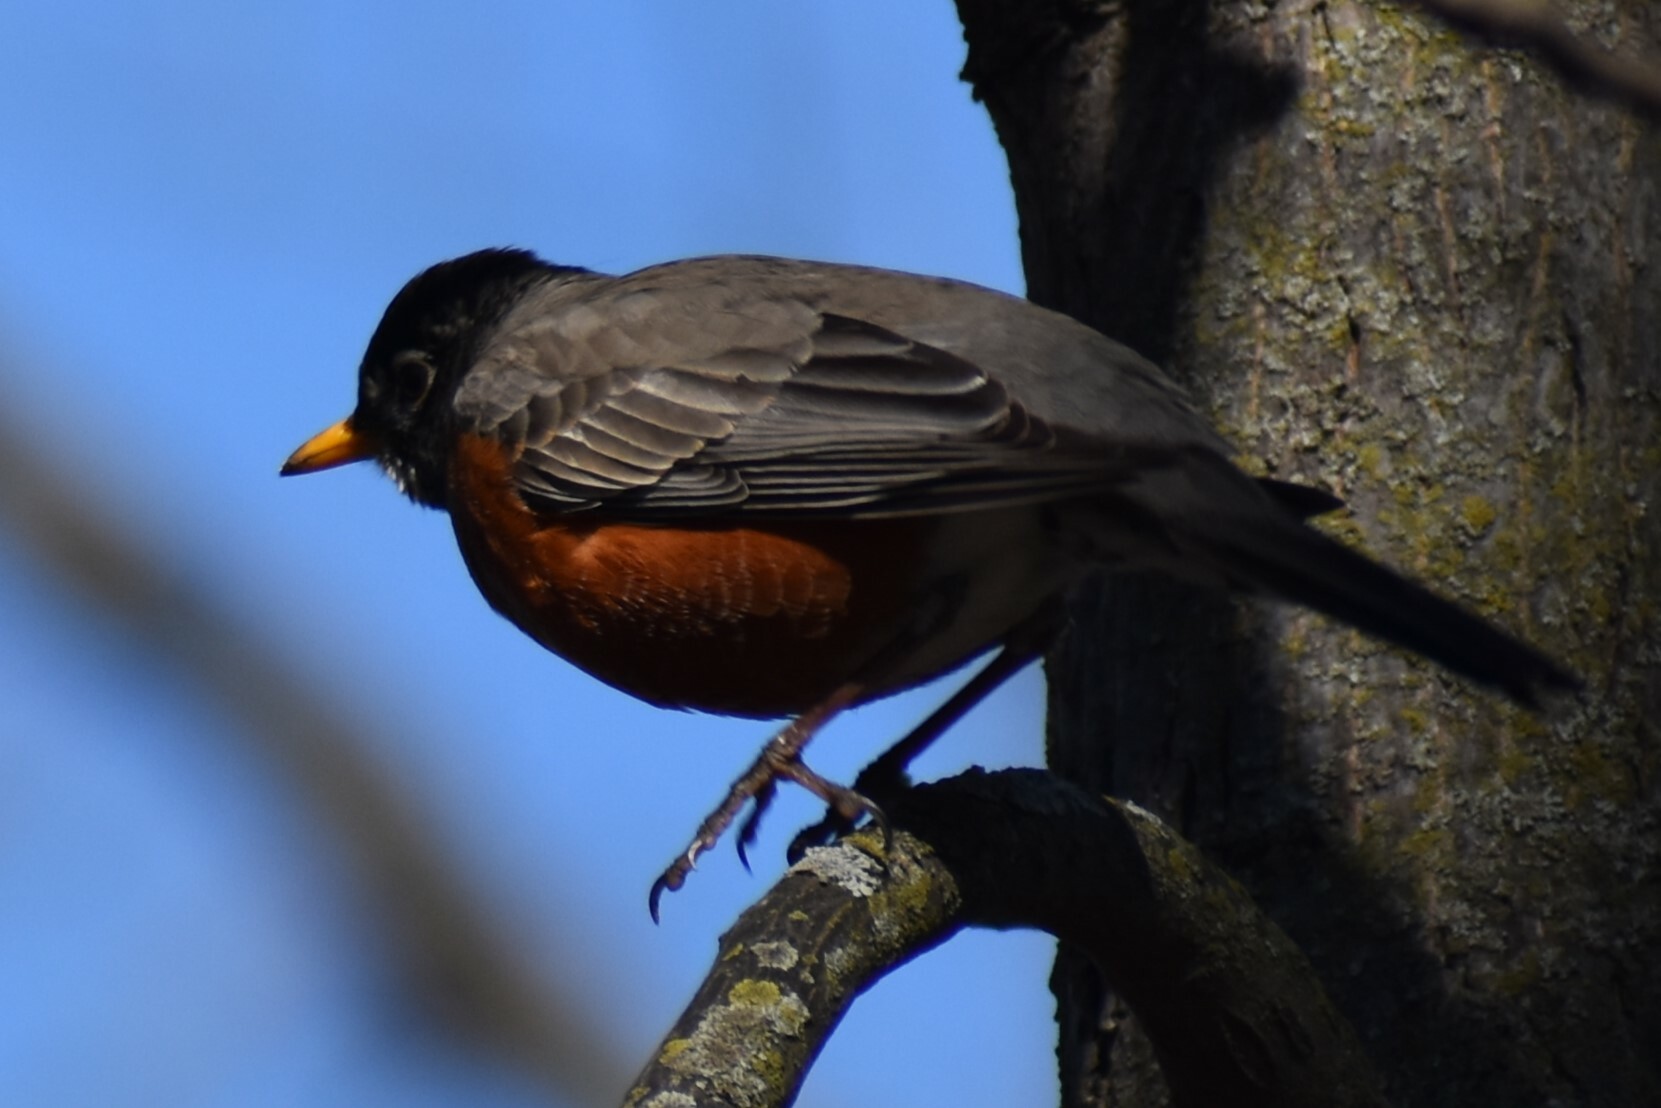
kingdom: Animalia
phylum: Chordata
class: Aves
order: Passeriformes
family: Turdidae
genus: Turdus
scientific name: Turdus migratorius
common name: American robin
